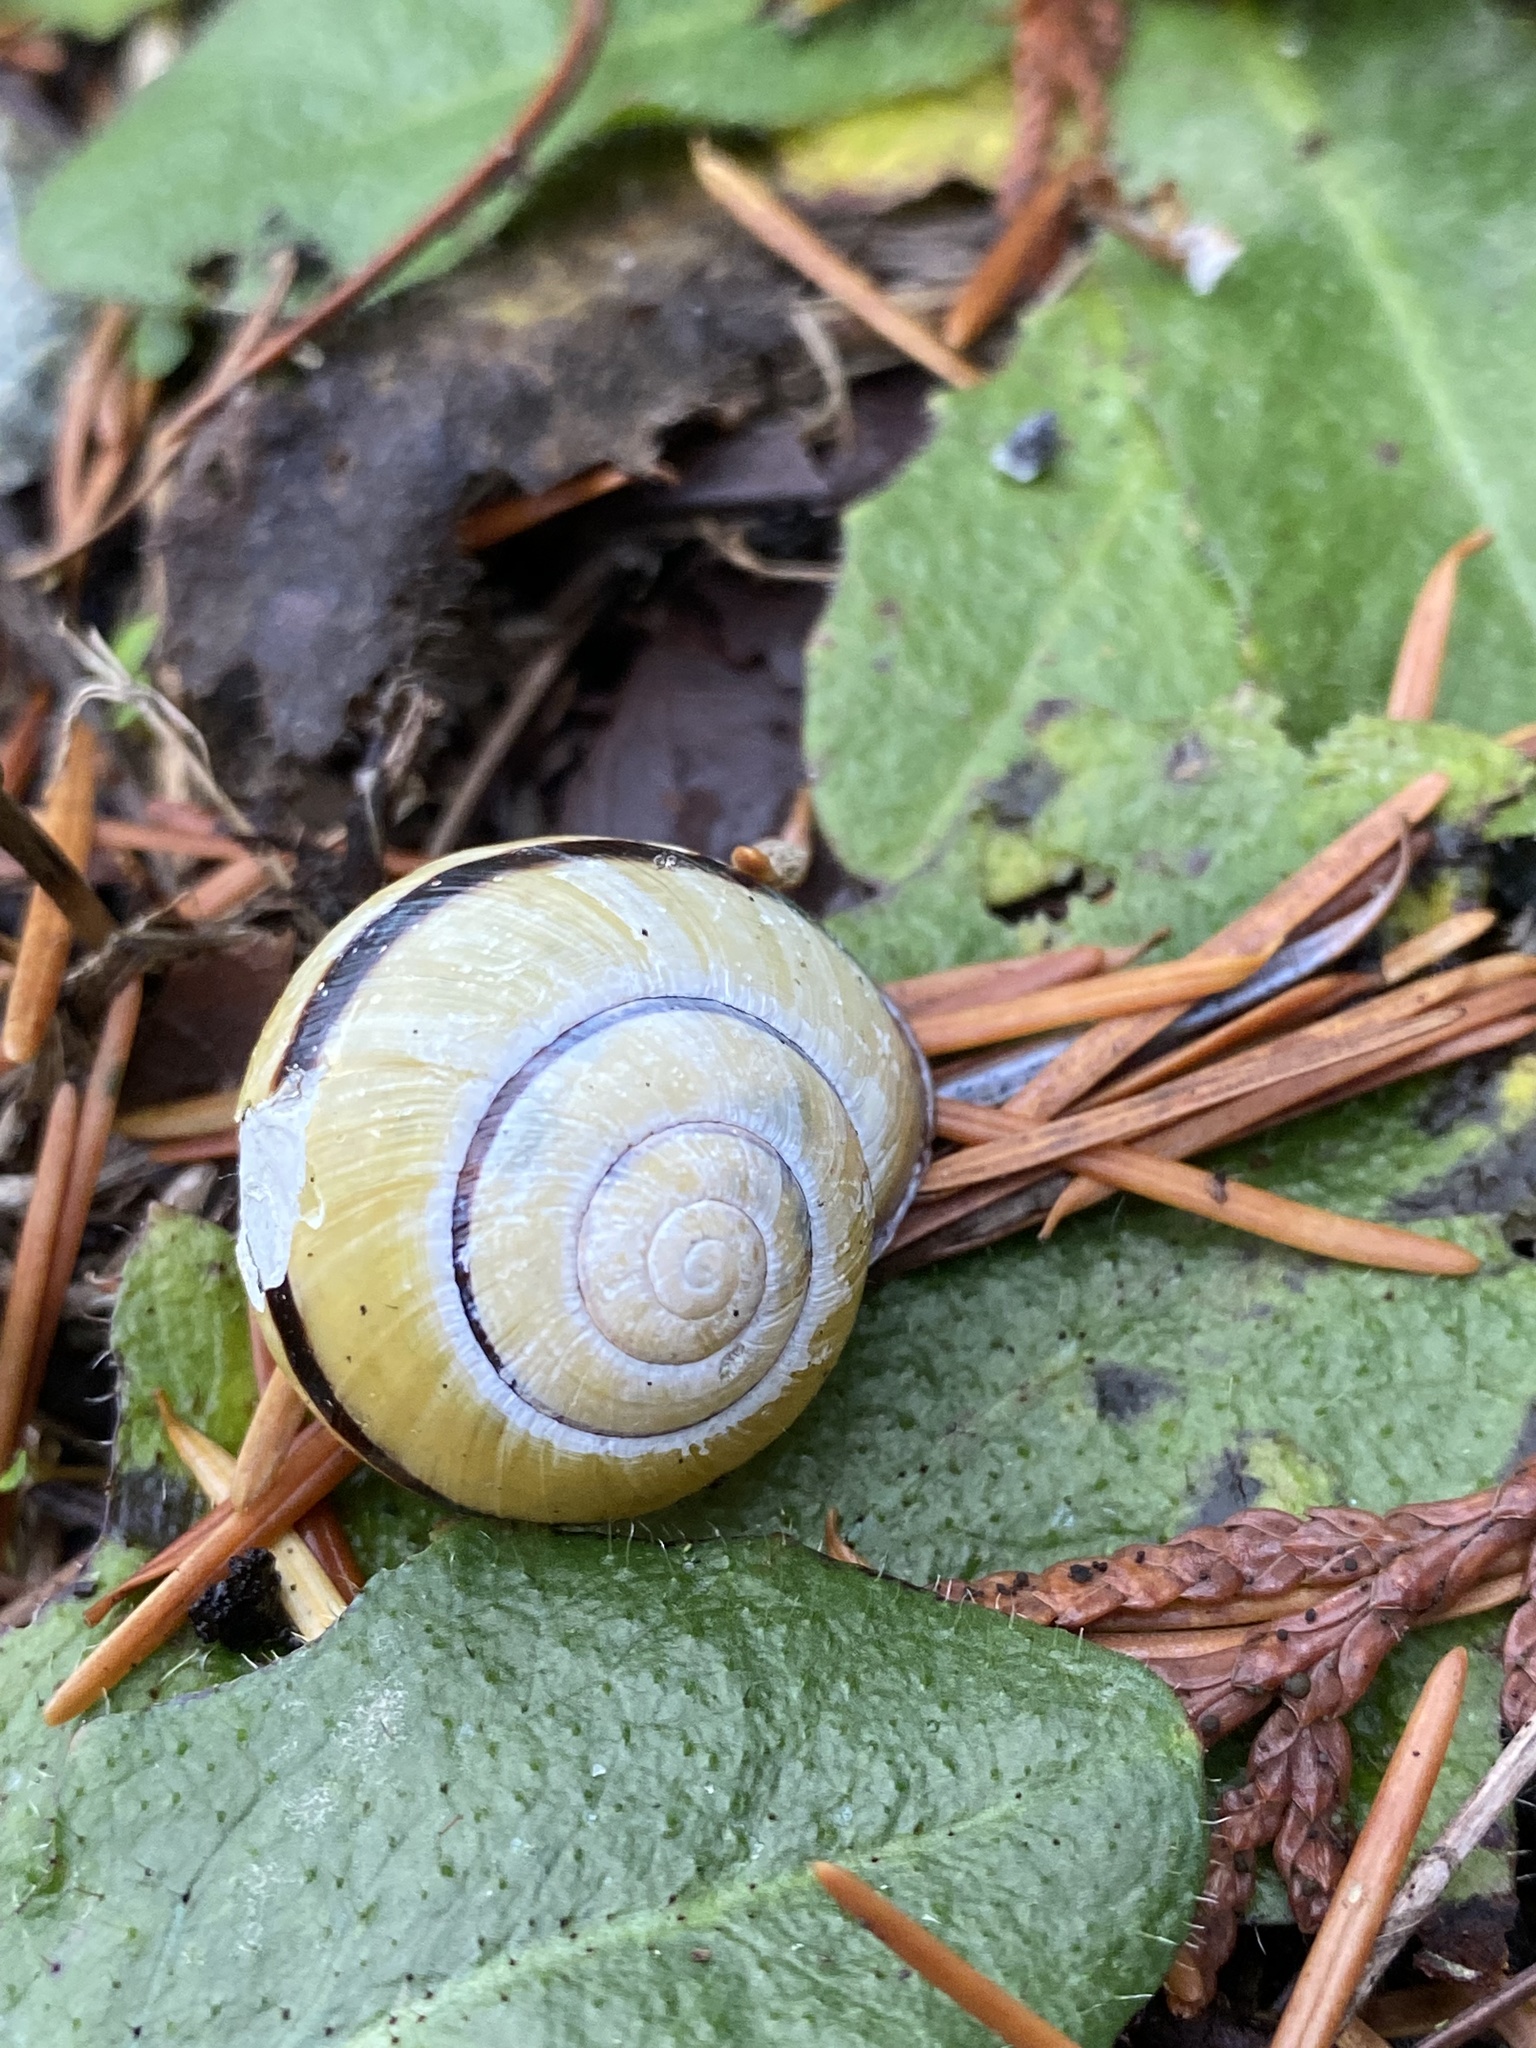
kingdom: Animalia
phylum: Mollusca
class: Gastropoda
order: Stylommatophora
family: Helicidae
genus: Cepaea
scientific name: Cepaea nemoralis
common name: Grovesnail
